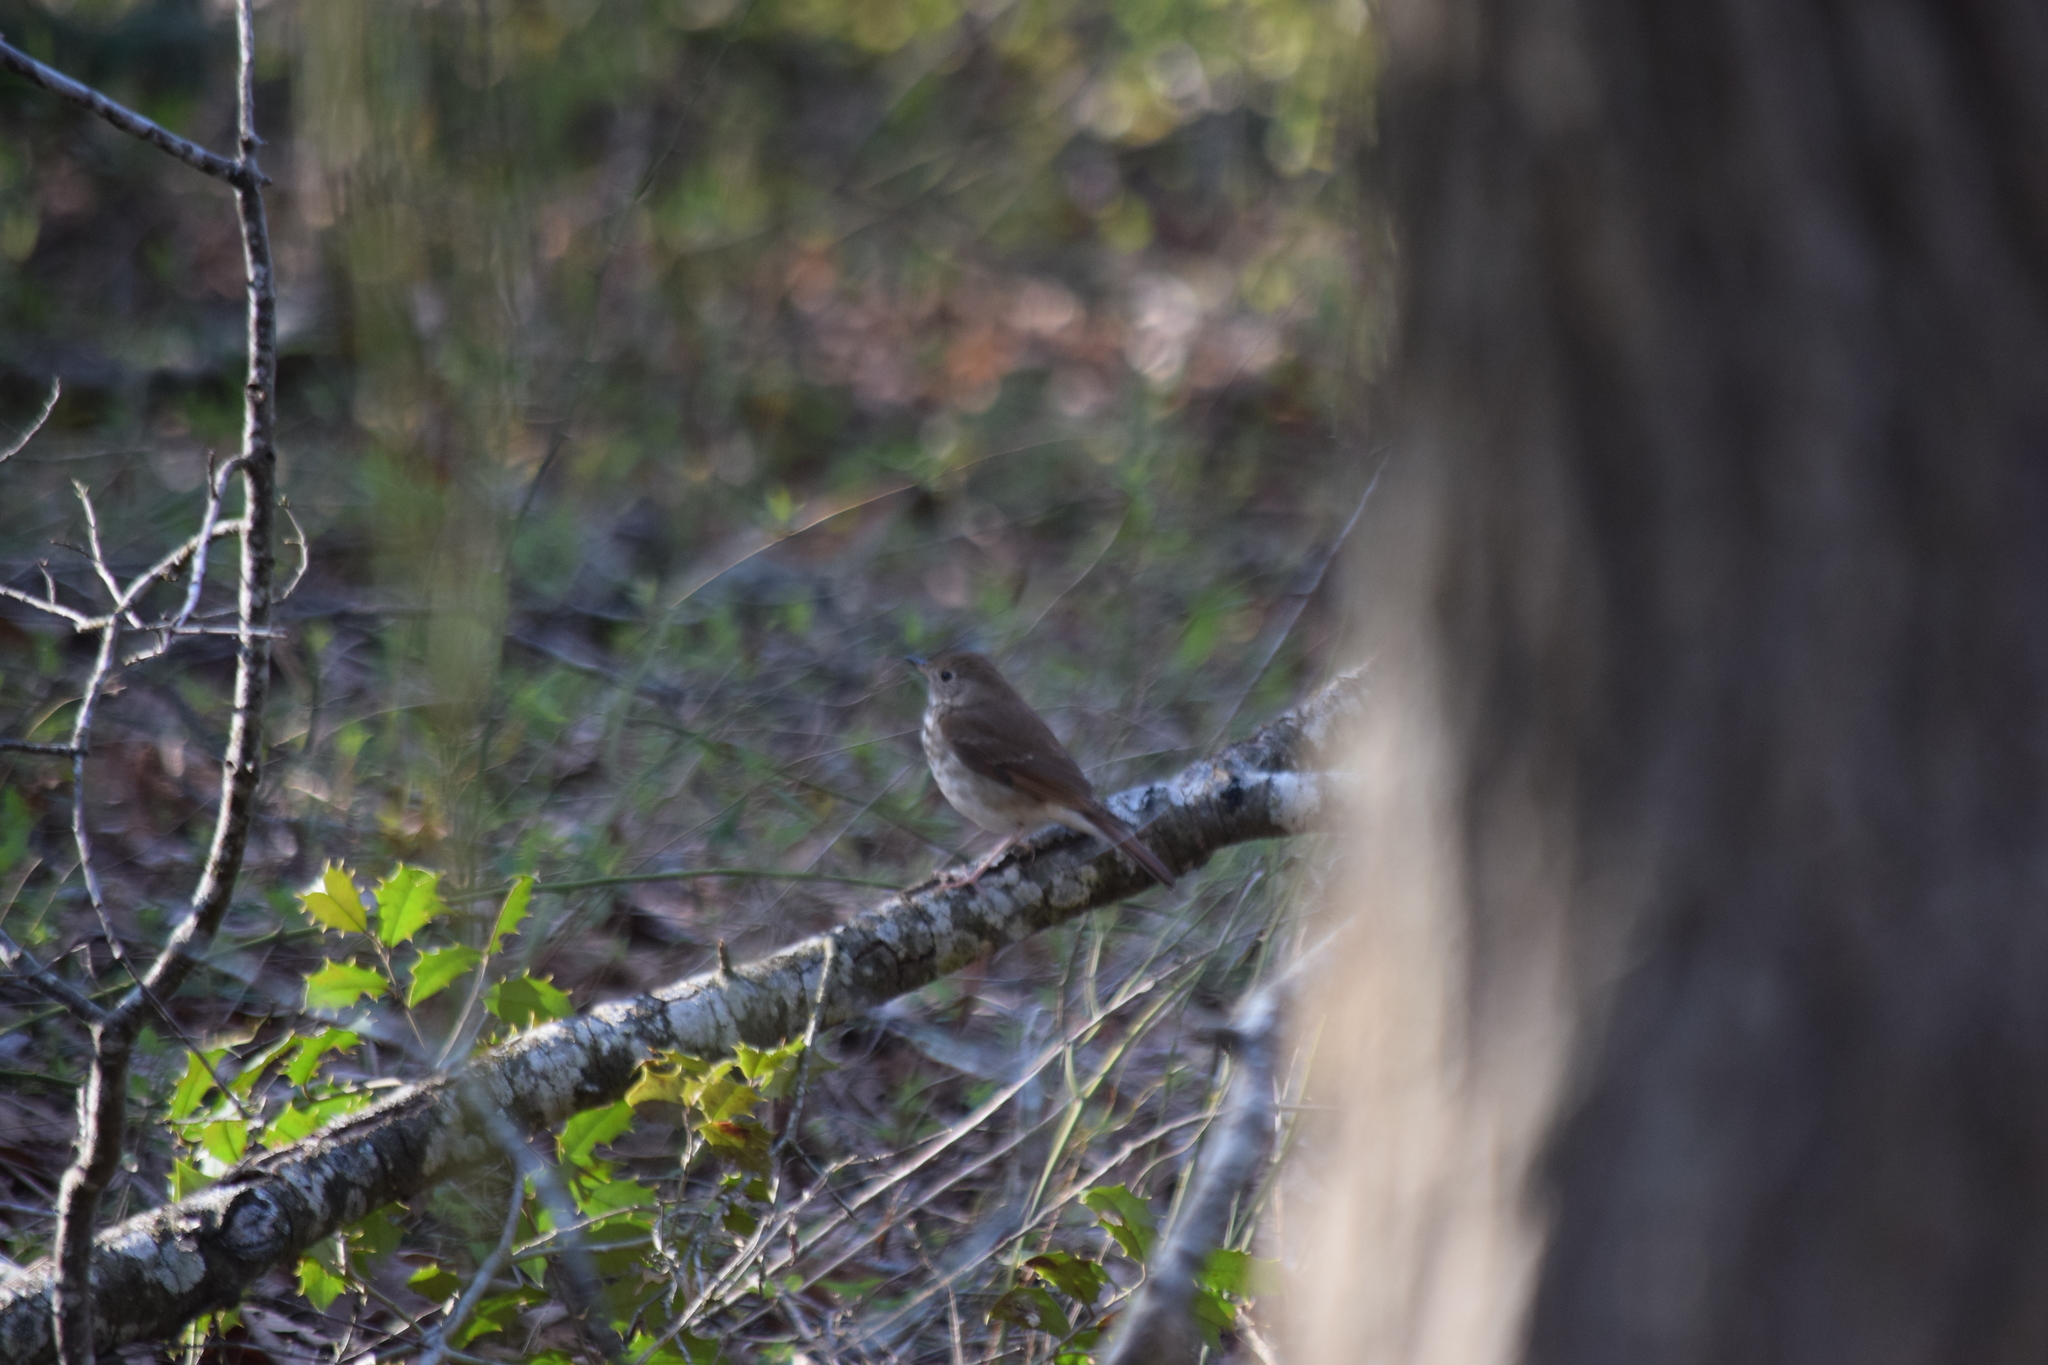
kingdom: Animalia
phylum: Chordata
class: Aves
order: Passeriformes
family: Turdidae
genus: Catharus
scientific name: Catharus guttatus
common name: Hermit thrush
